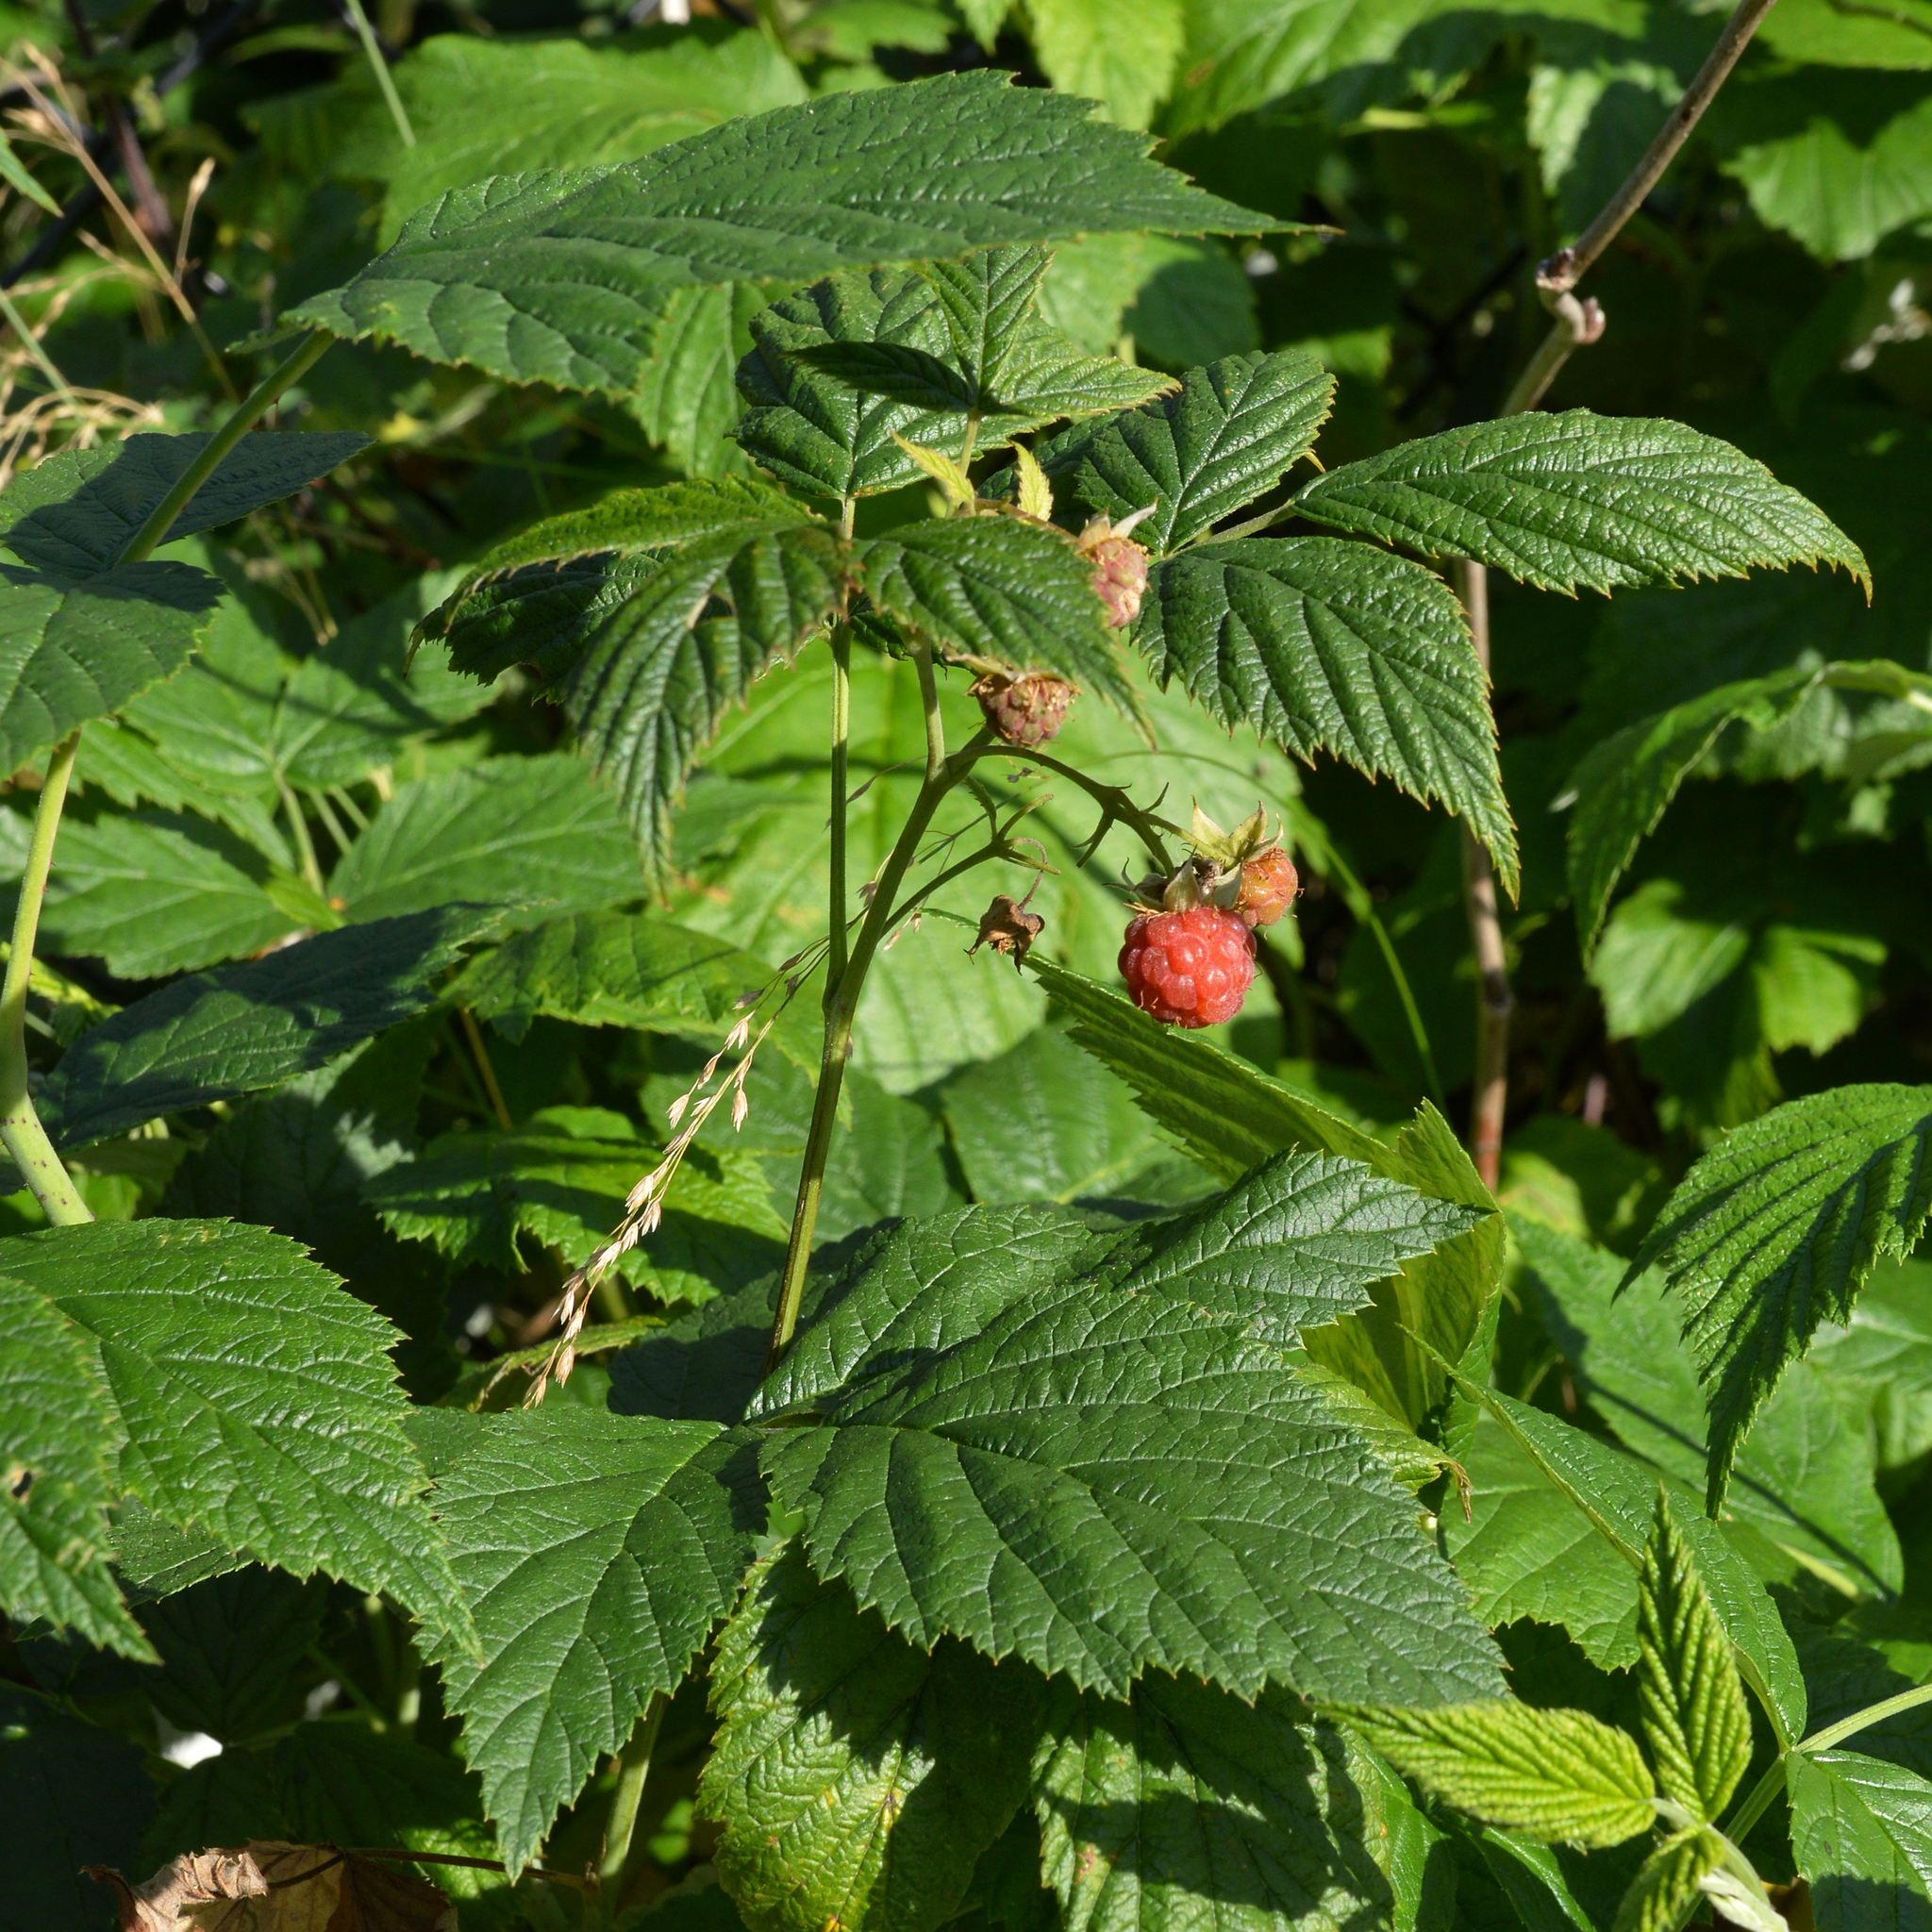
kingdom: Plantae
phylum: Tracheophyta
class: Magnoliopsida
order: Rosales
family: Rosaceae
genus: Rubus
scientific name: Rubus idaeus
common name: Raspberry
